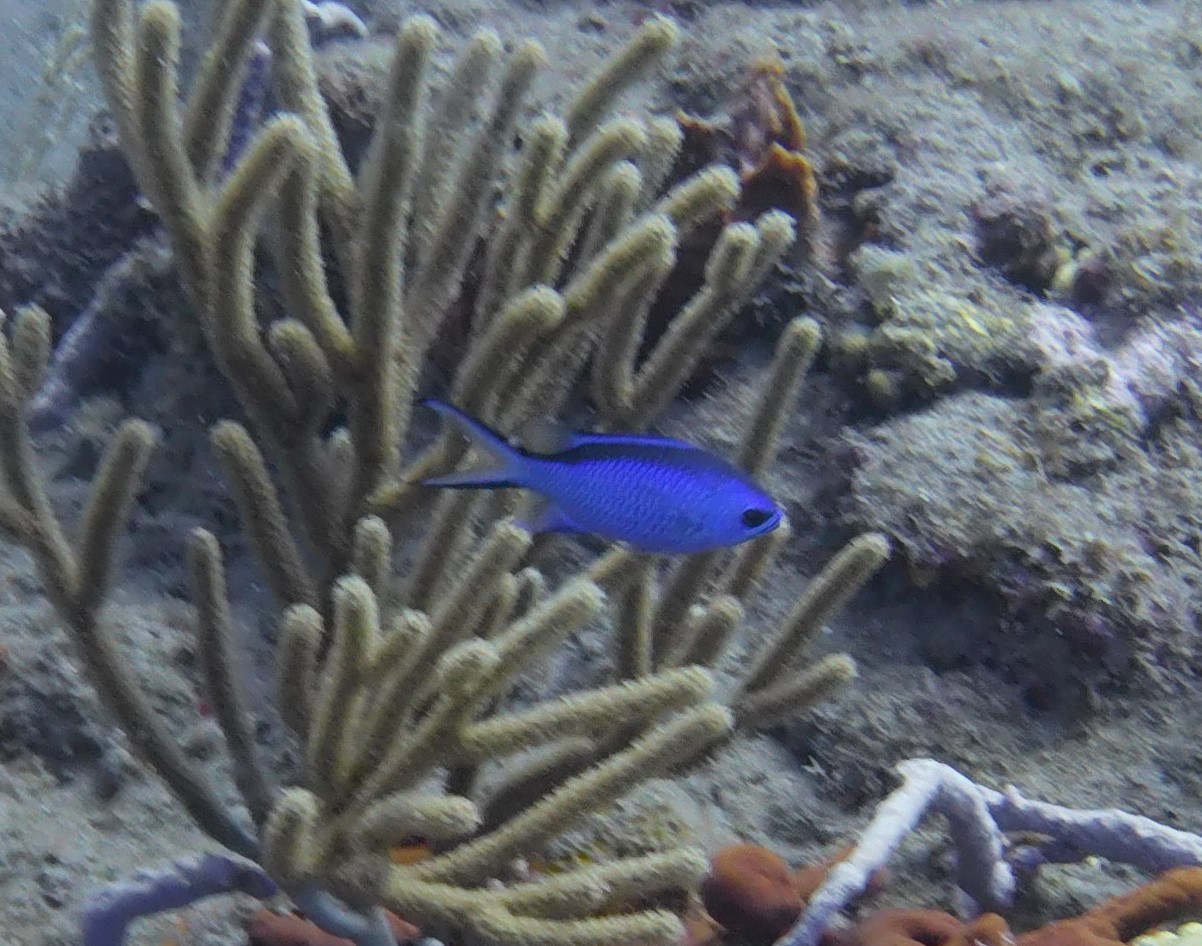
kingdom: Animalia
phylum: Chordata
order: Perciformes
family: Pomacentridae
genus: Chromis
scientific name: Chromis cyanea
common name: Blue chromis
